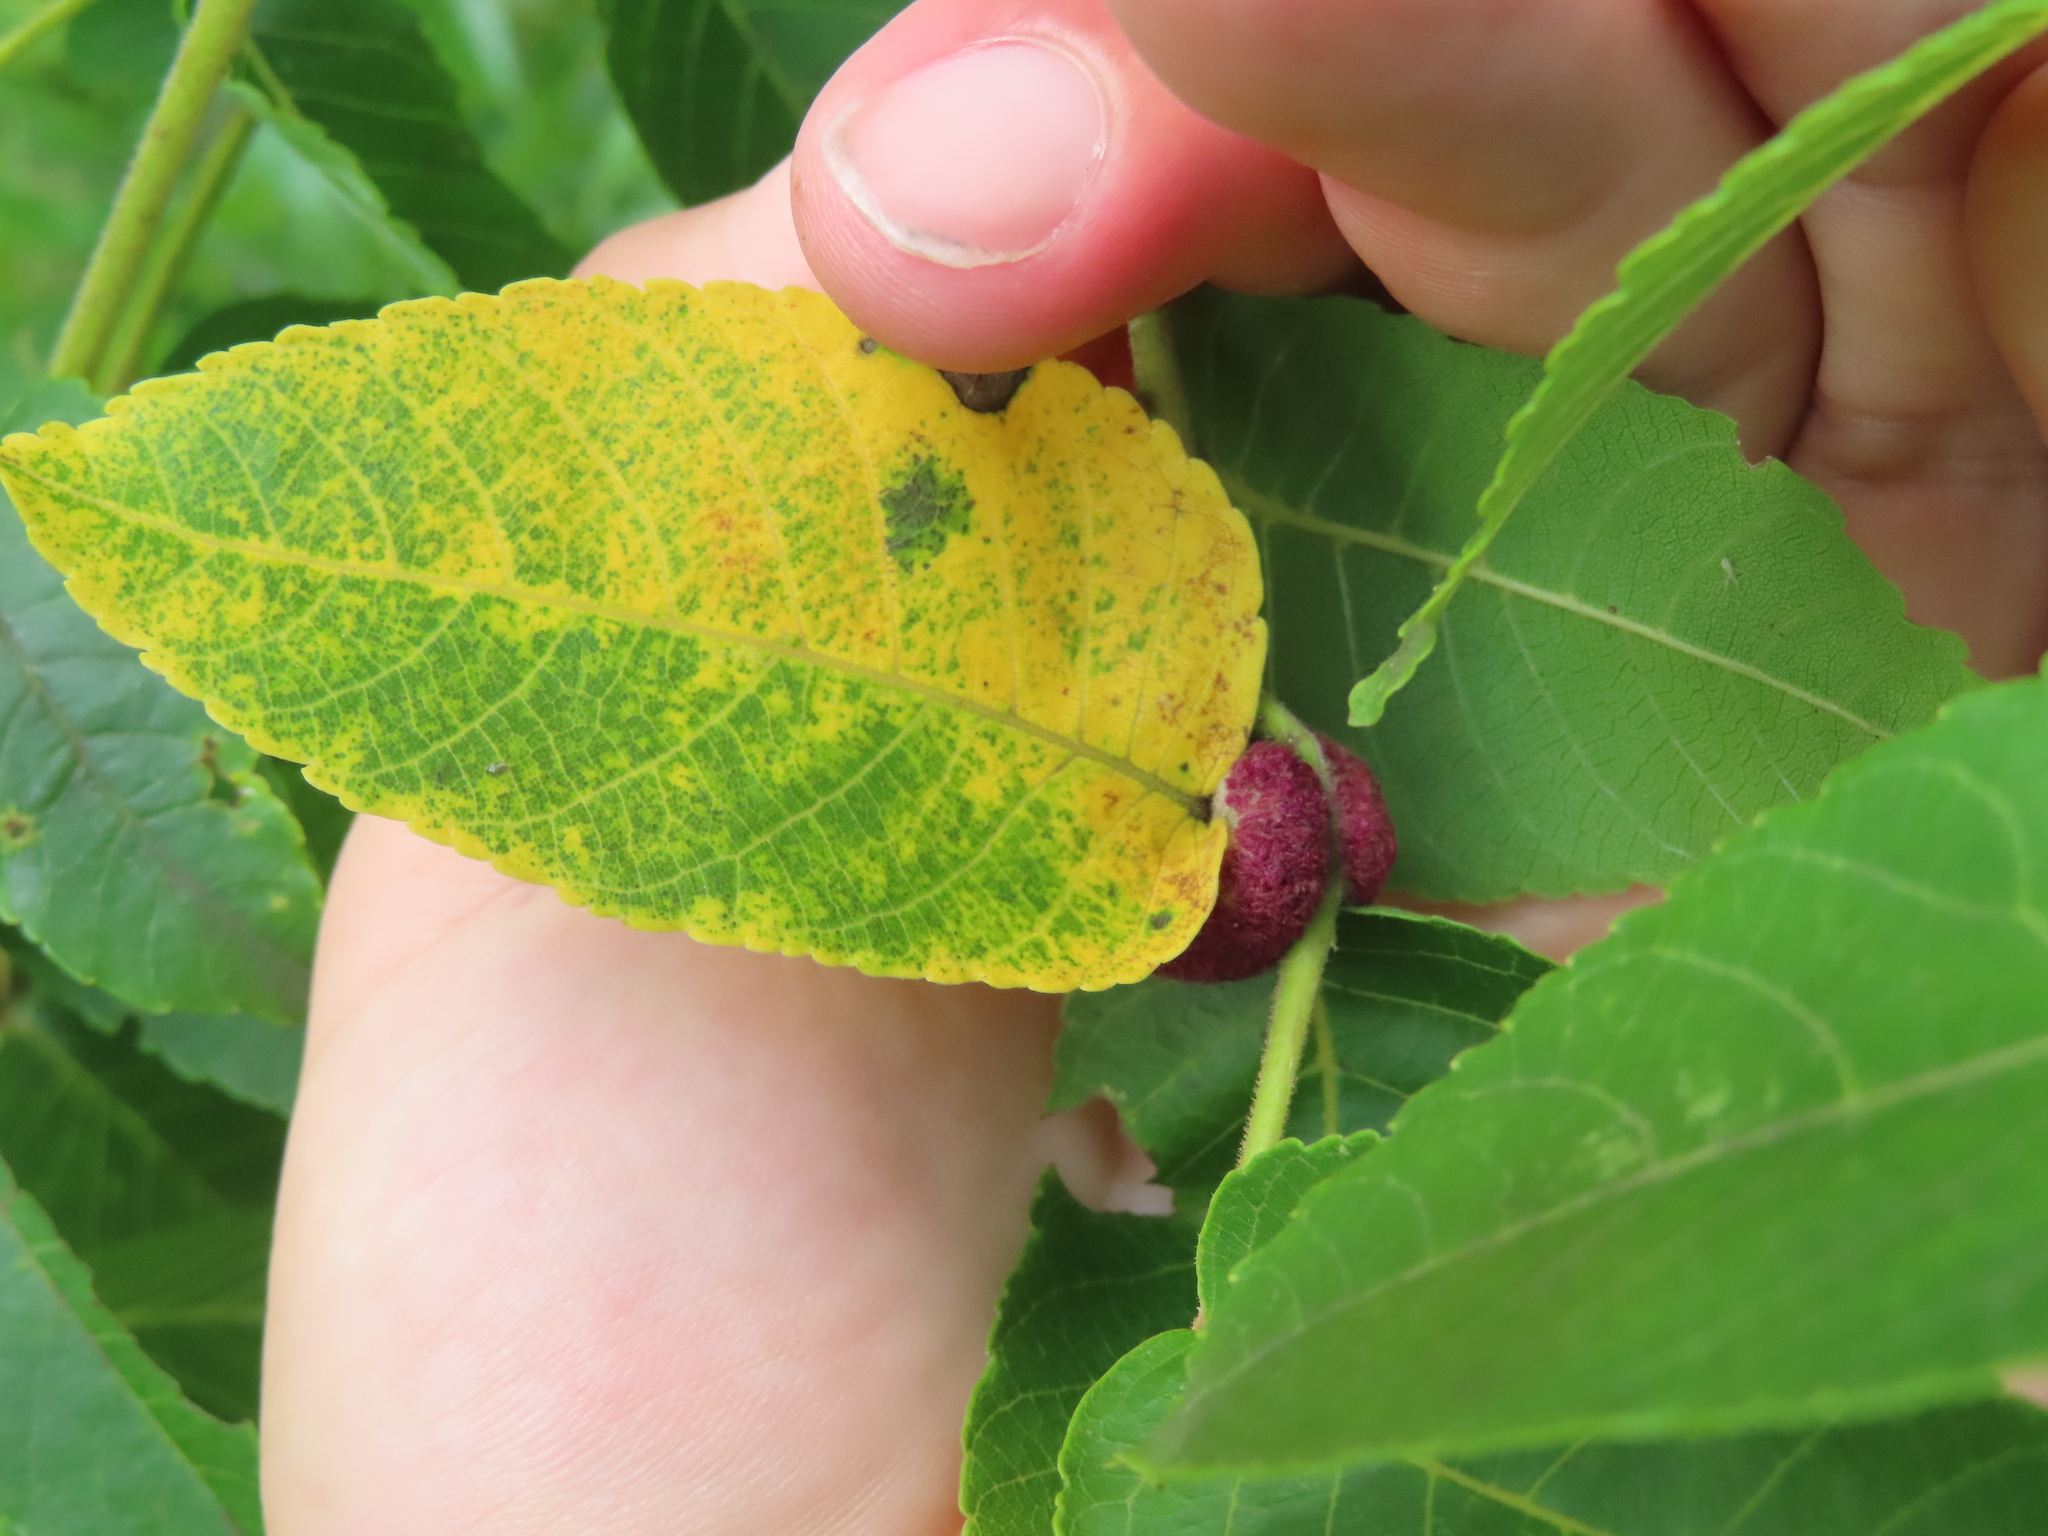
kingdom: Animalia
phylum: Arthropoda
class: Arachnida
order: Trombidiformes
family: Eriophyidae
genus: Aceria
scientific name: Aceria
